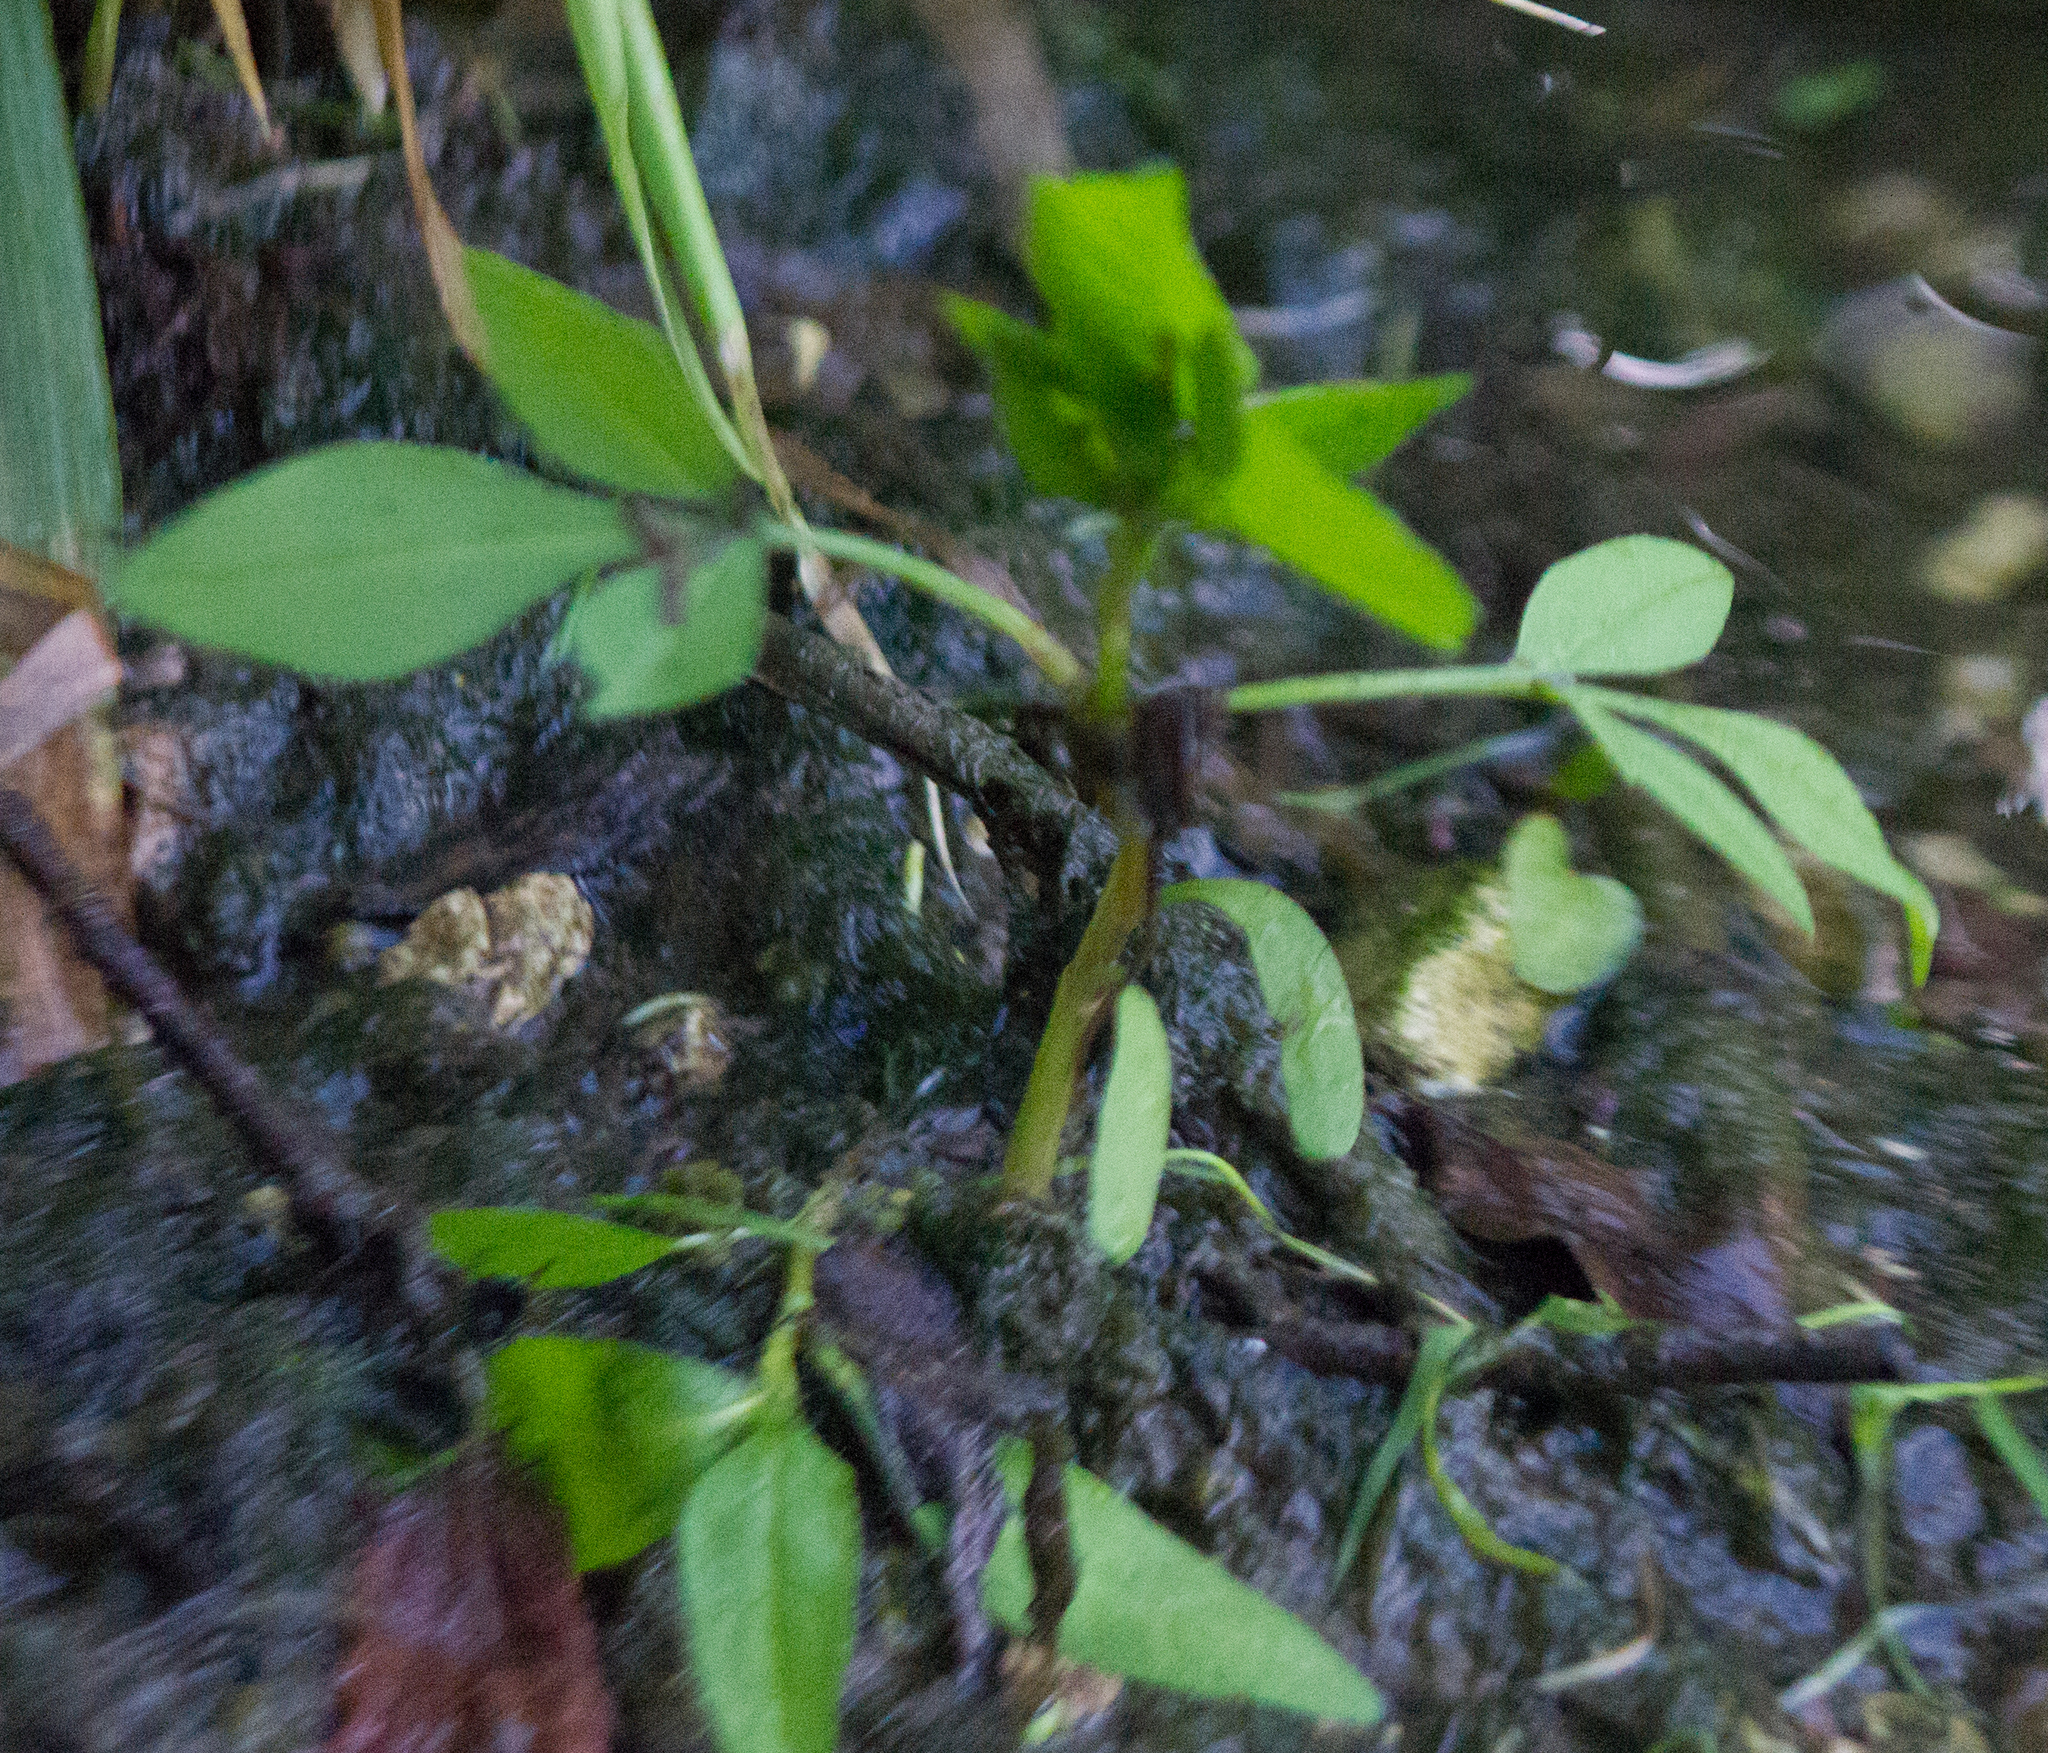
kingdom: Plantae
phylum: Tracheophyta
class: Magnoliopsida
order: Asterales
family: Asteraceae
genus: Bidens
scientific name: Bidens frondosa
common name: Beggarticks
